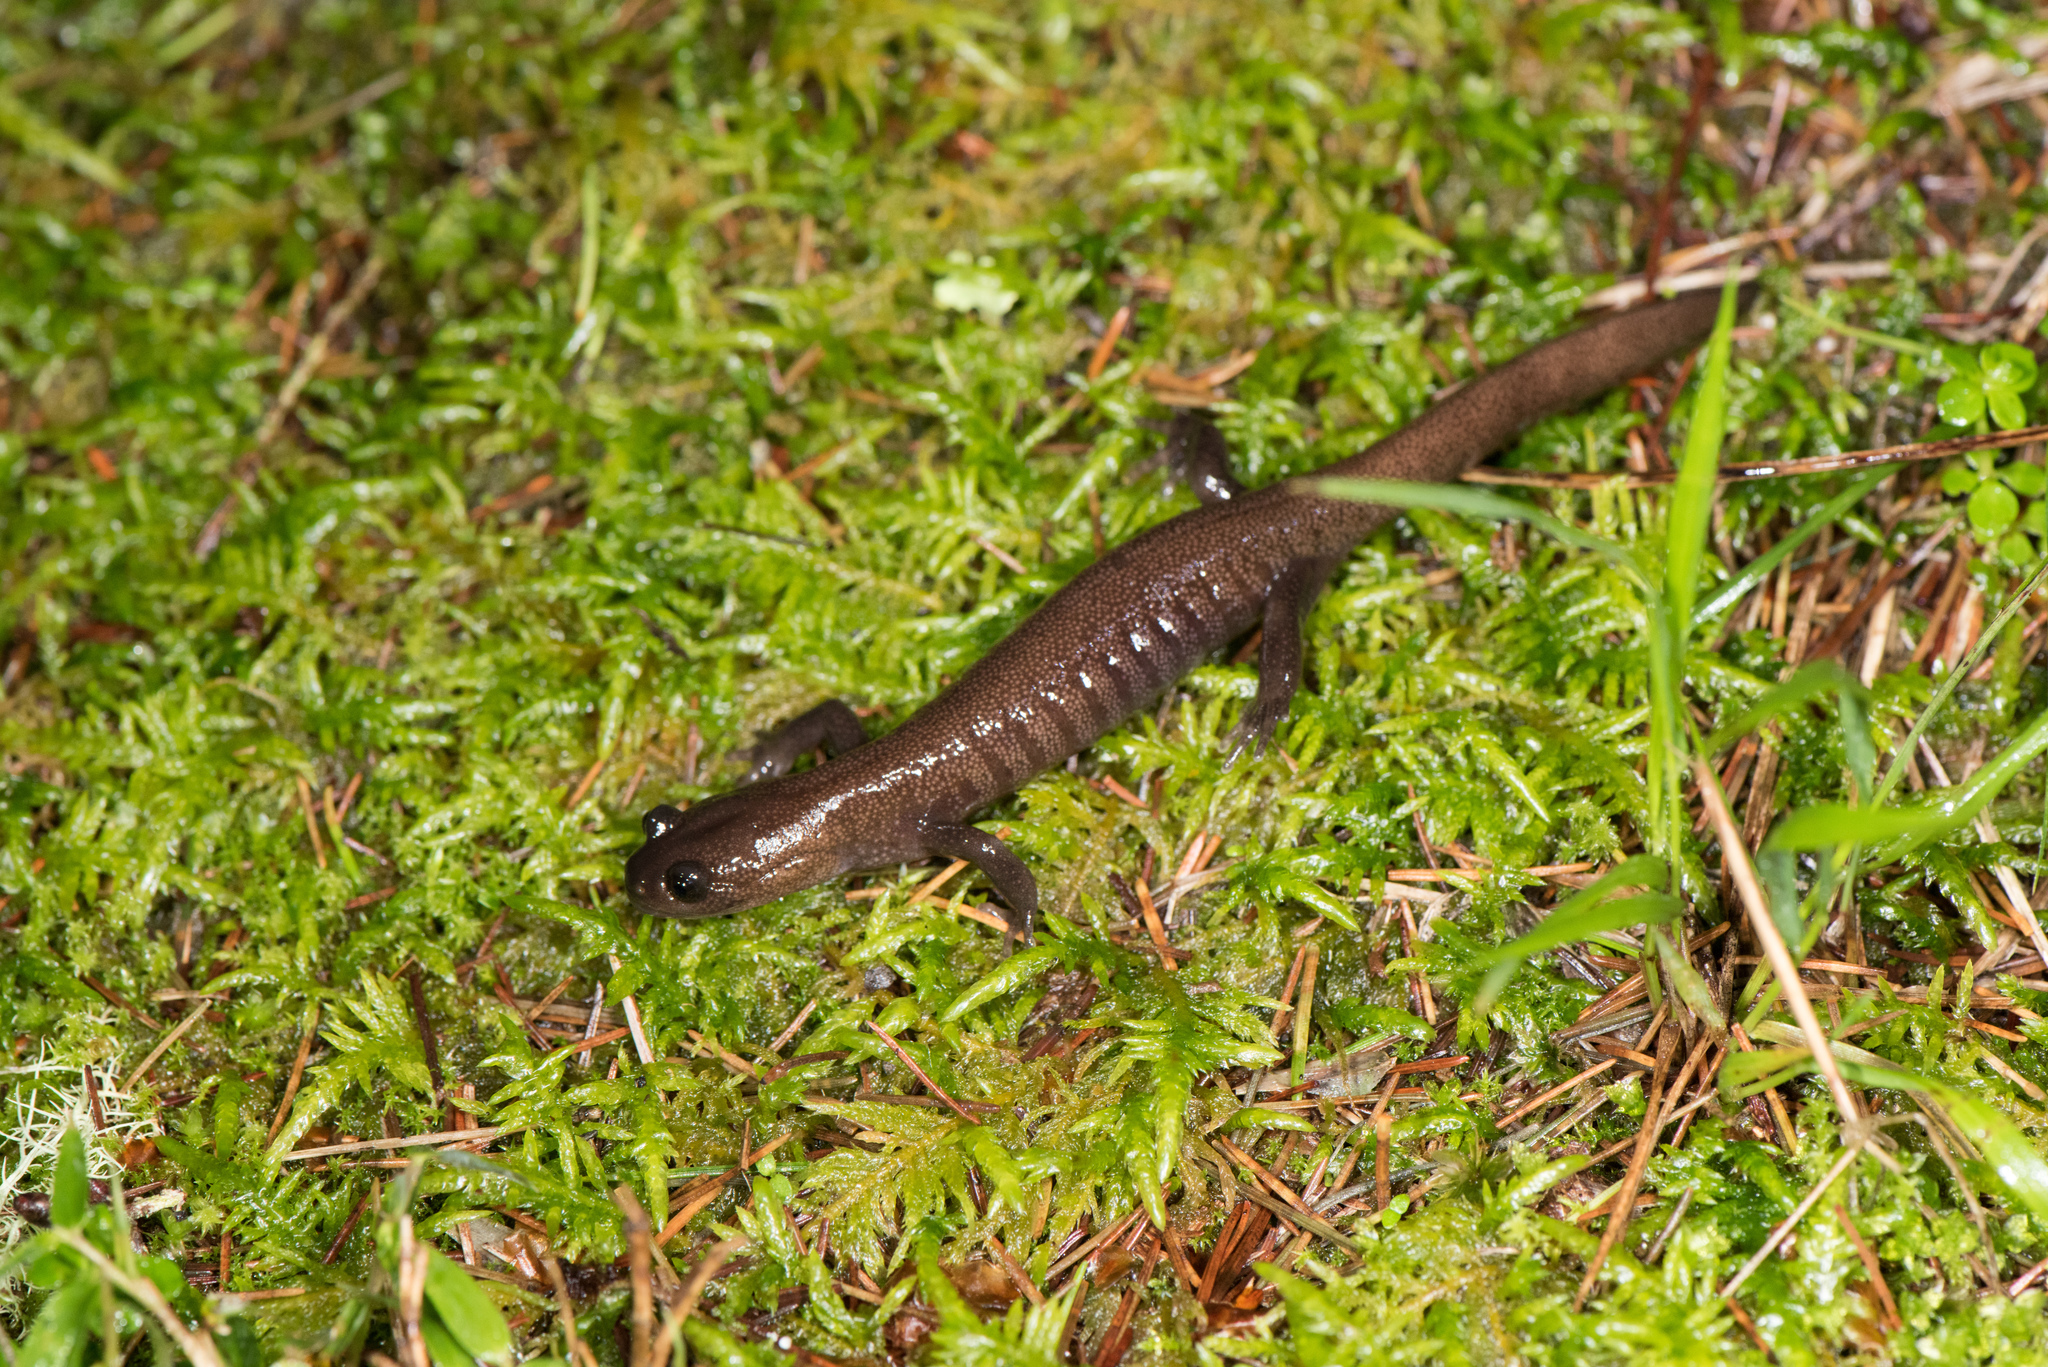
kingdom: Animalia
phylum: Chordata
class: Amphibia
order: Caudata
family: Hynobiidae
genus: Hynobius
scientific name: Hynobius arisanensis
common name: Alisan's salamander
